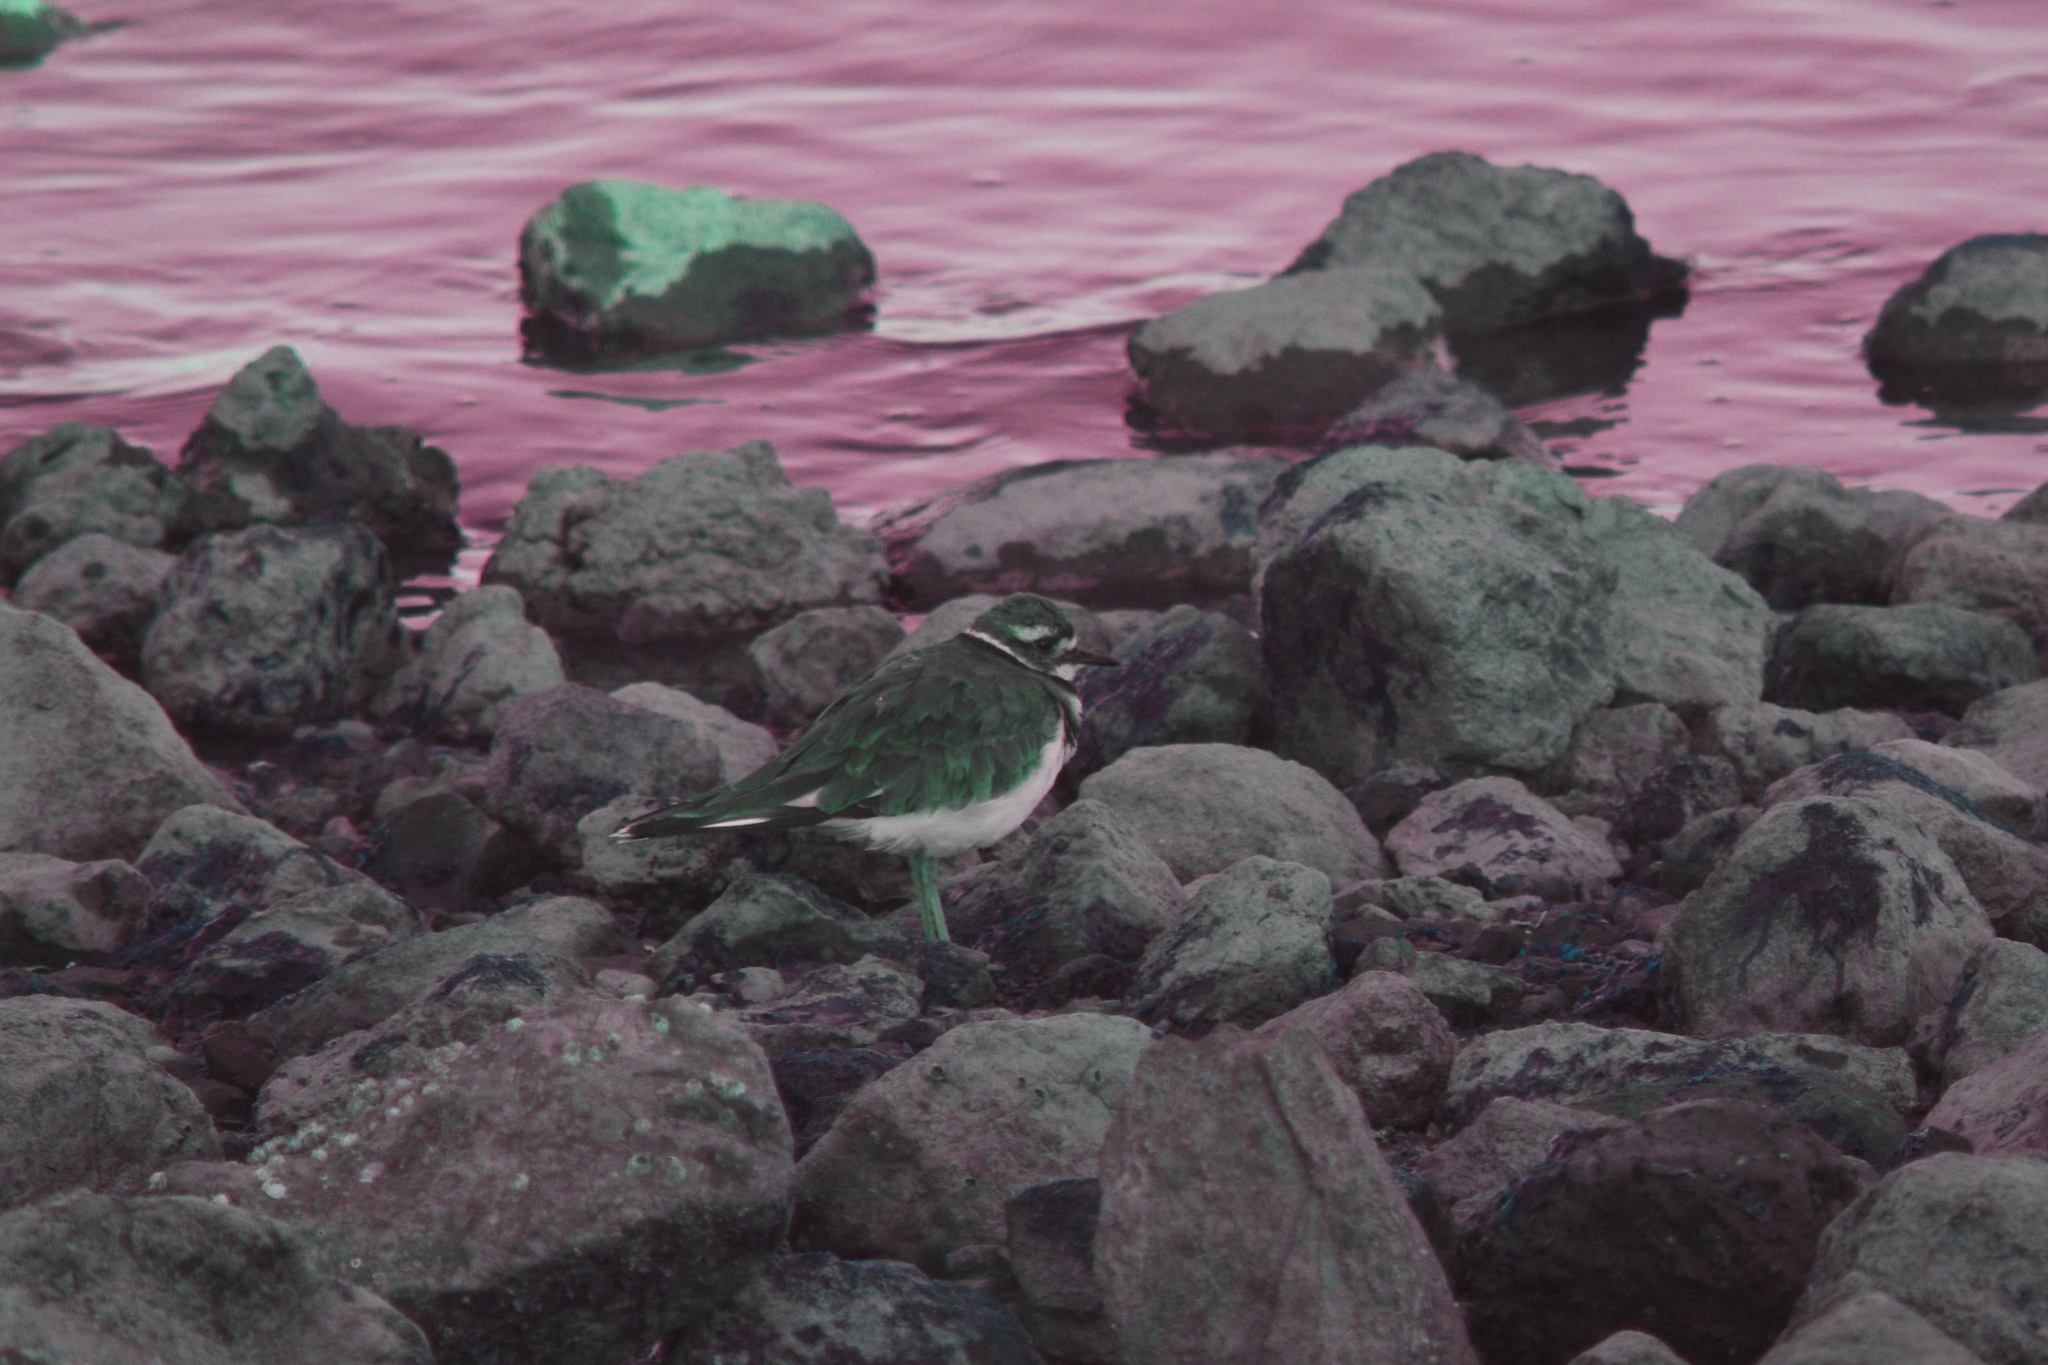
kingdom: Animalia
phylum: Chordata
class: Aves
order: Charadriiformes
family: Charadriidae
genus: Charadrius
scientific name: Charadrius vociferus
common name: Killdeer
